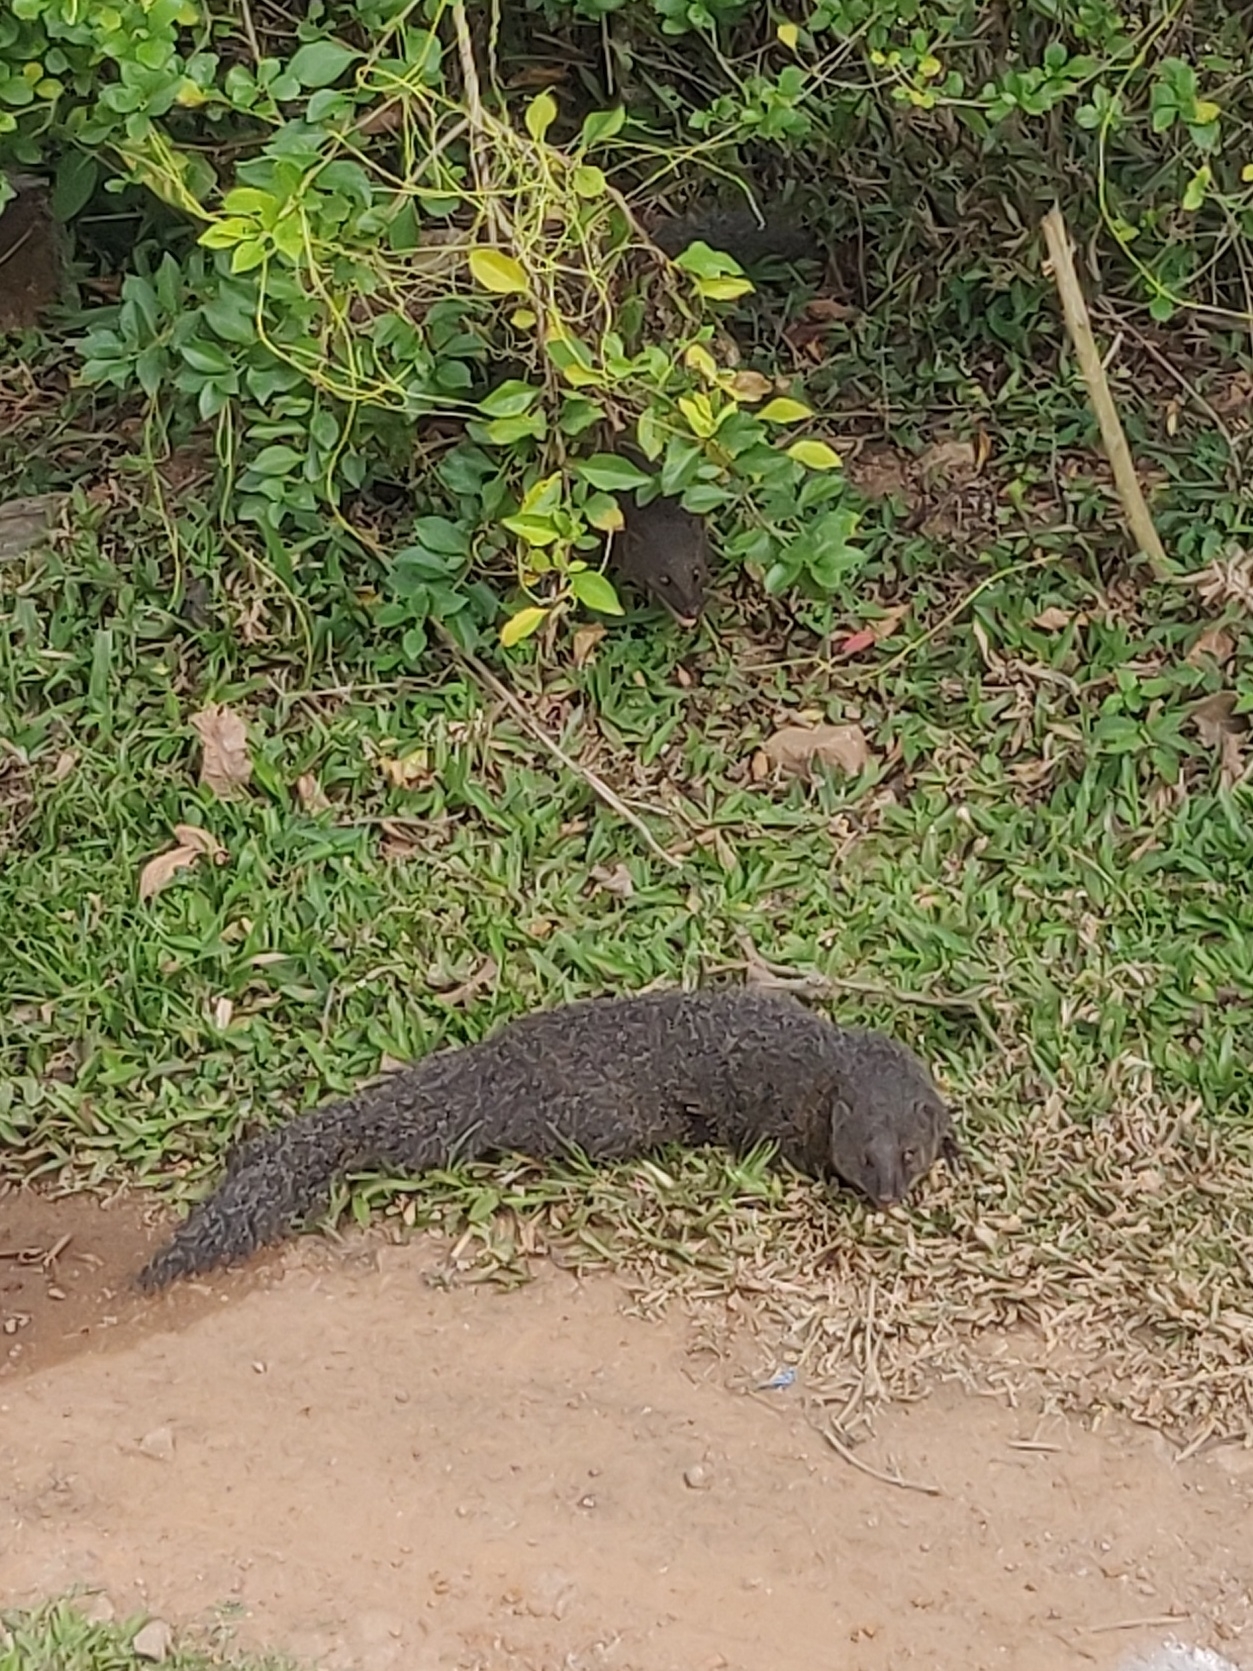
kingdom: Animalia
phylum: Chordata
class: Mammalia
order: Carnivora
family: Herpestidae
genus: Herpestes
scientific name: Herpestes fuscus
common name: Indian brown mongoose
